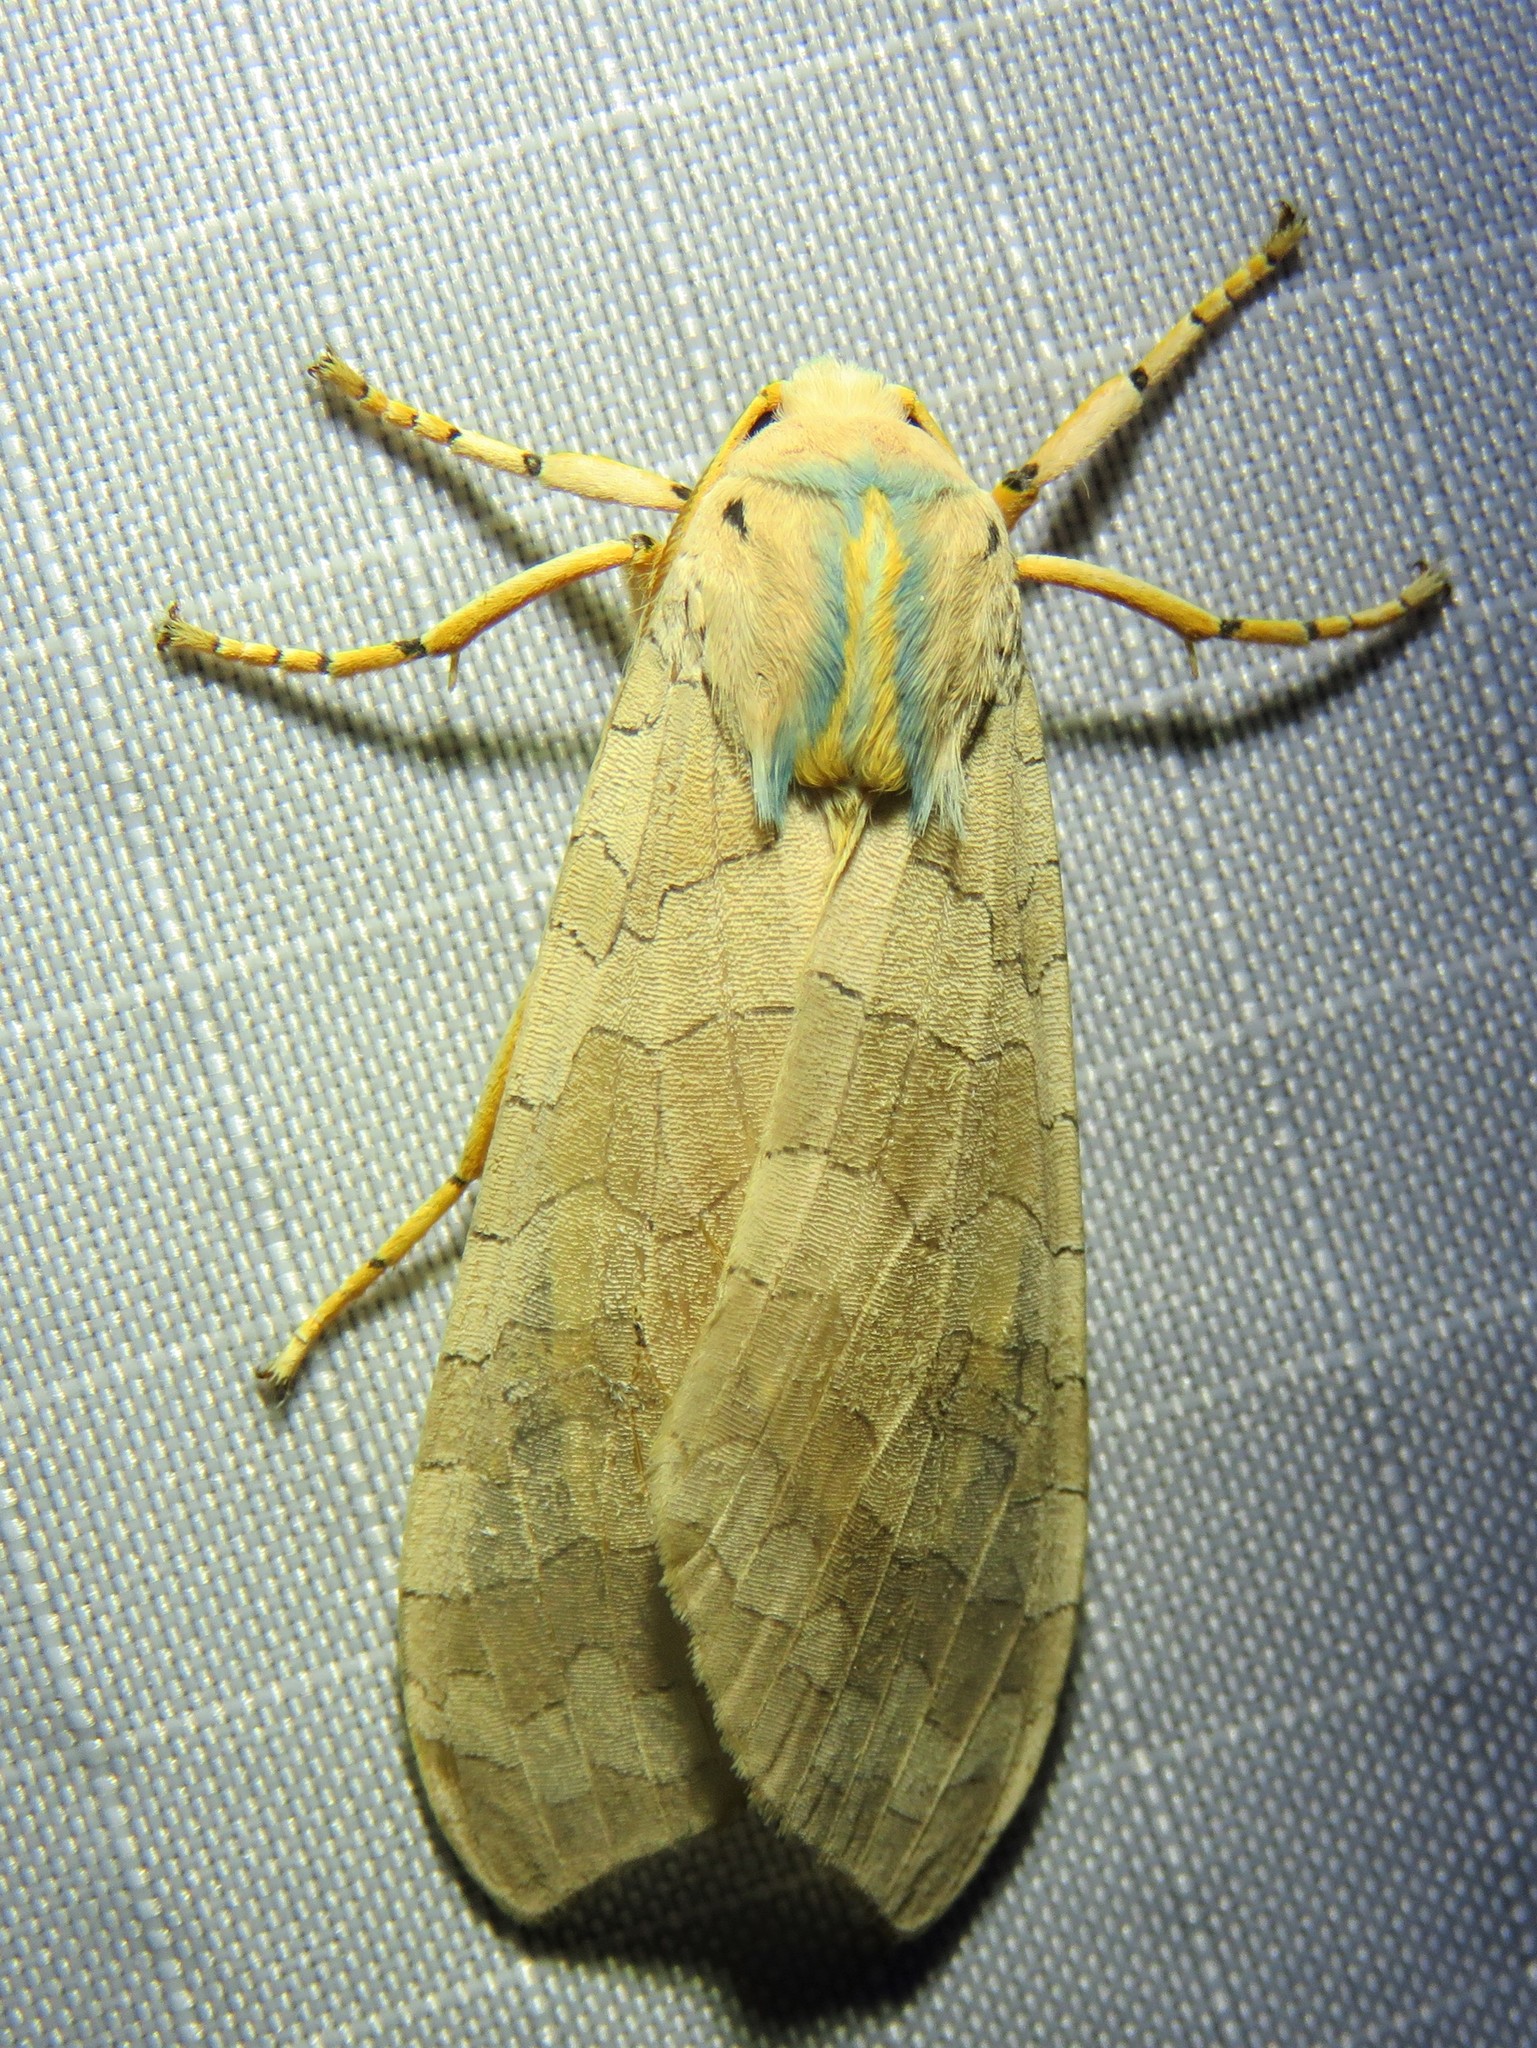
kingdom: Animalia
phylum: Arthropoda
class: Insecta
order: Lepidoptera
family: Erebidae
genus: Halysidota
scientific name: Halysidota
